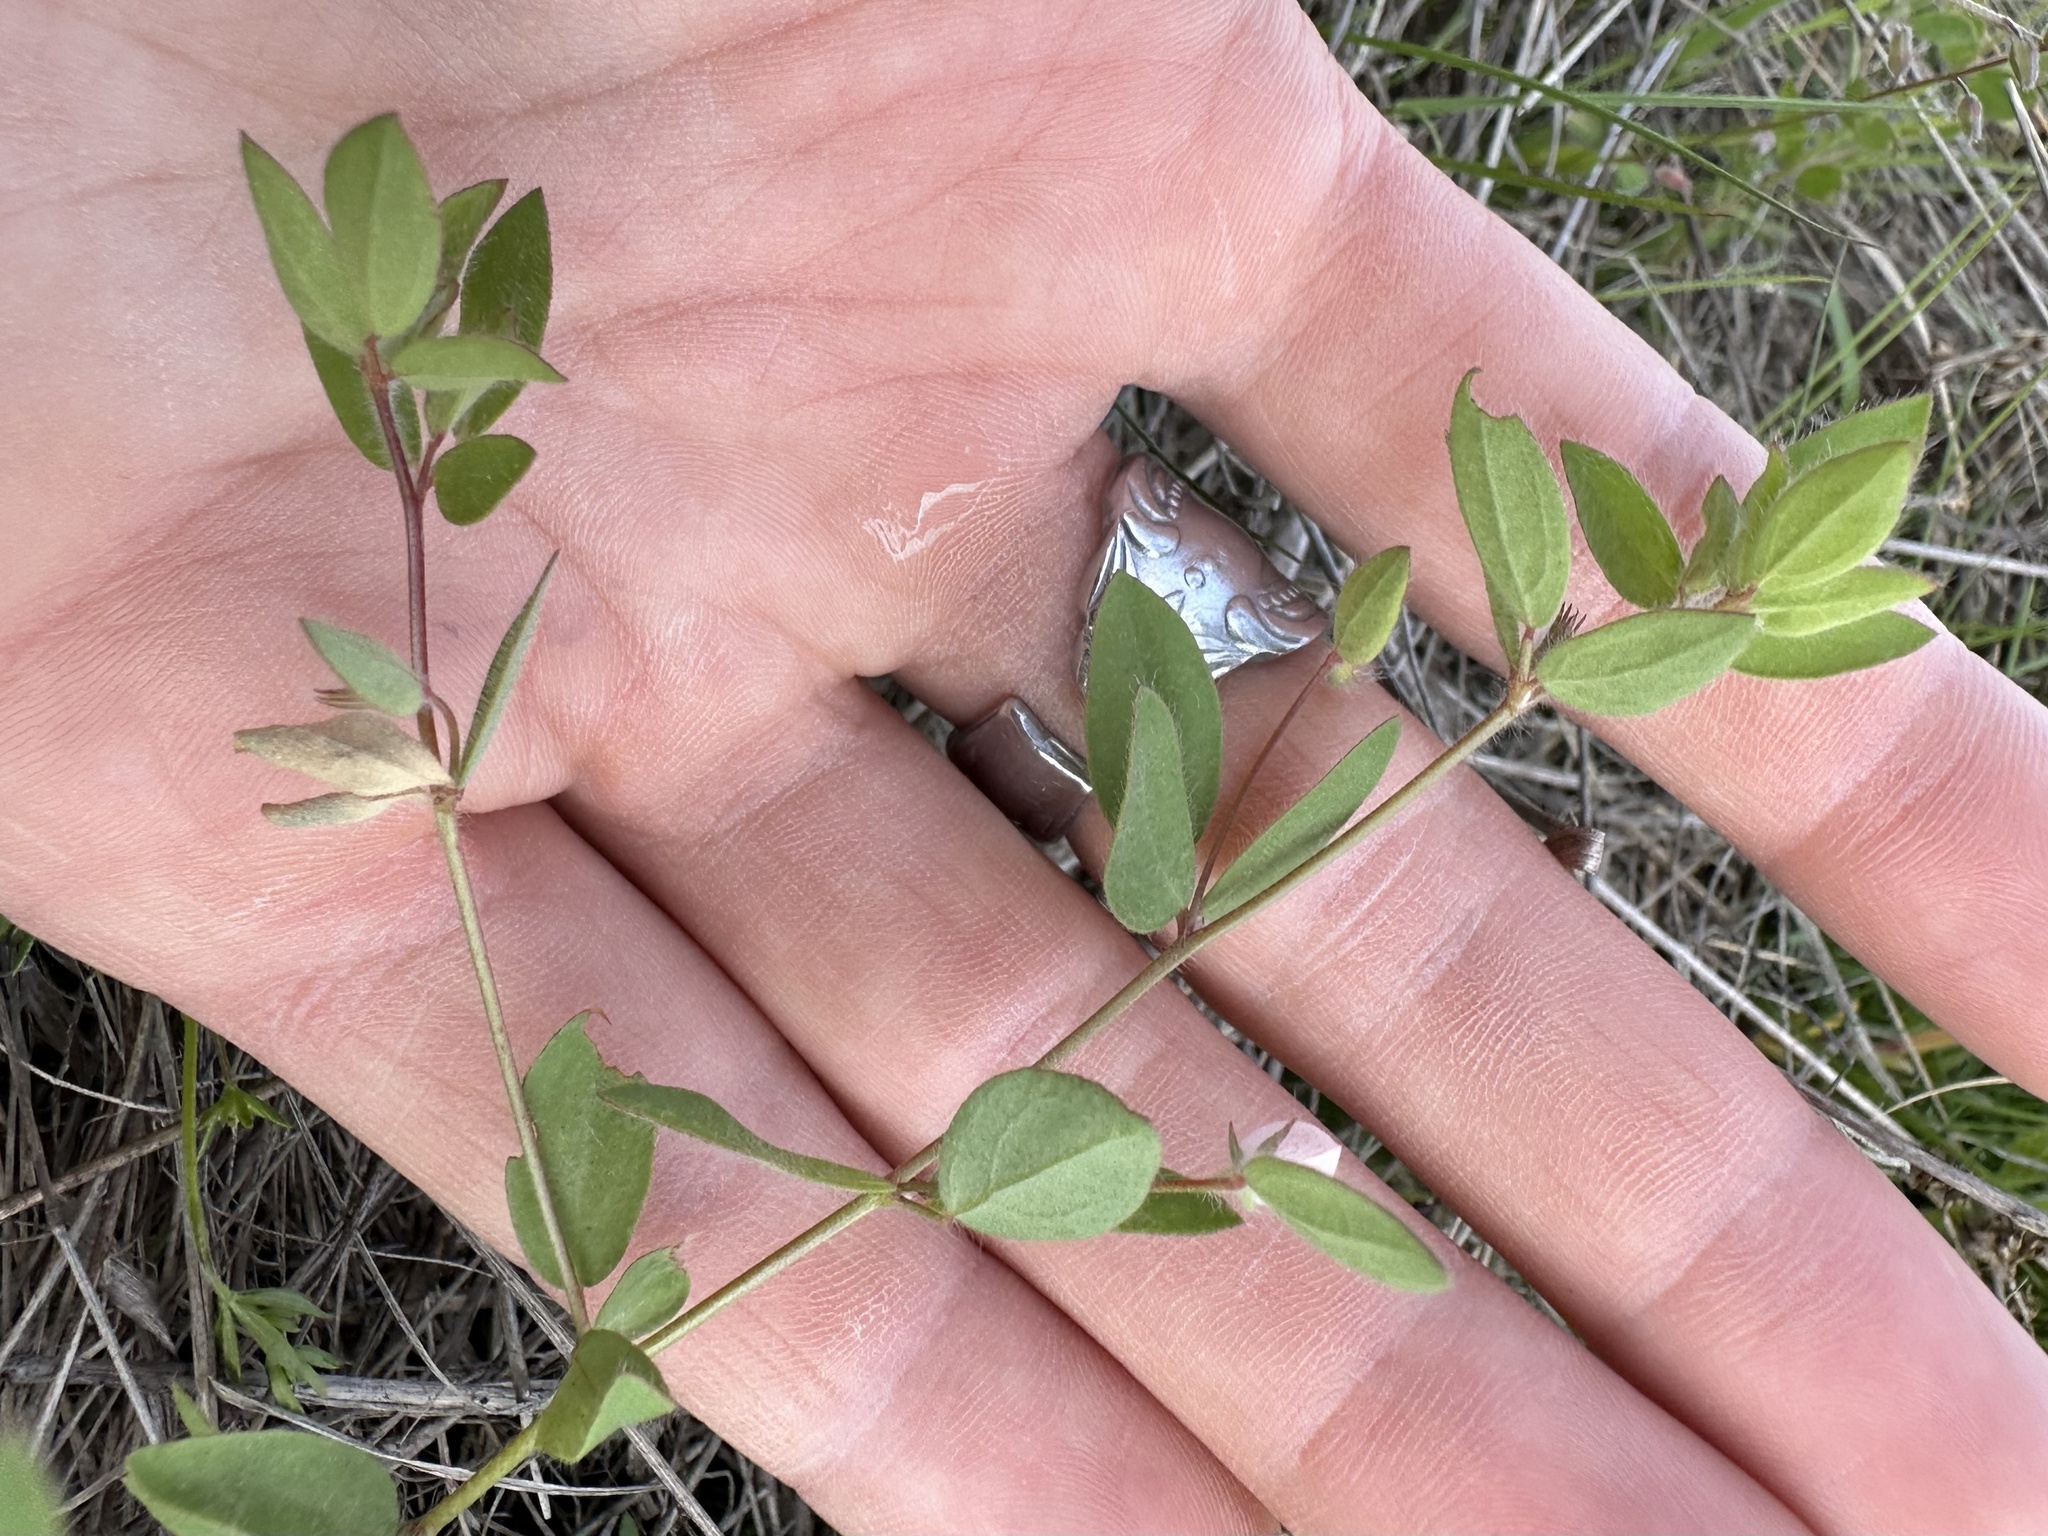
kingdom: Plantae
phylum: Tracheophyta
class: Magnoliopsida
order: Fabales
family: Fabaceae
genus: Acmispon
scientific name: Acmispon americanus
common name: American bird's-foot trefoil
